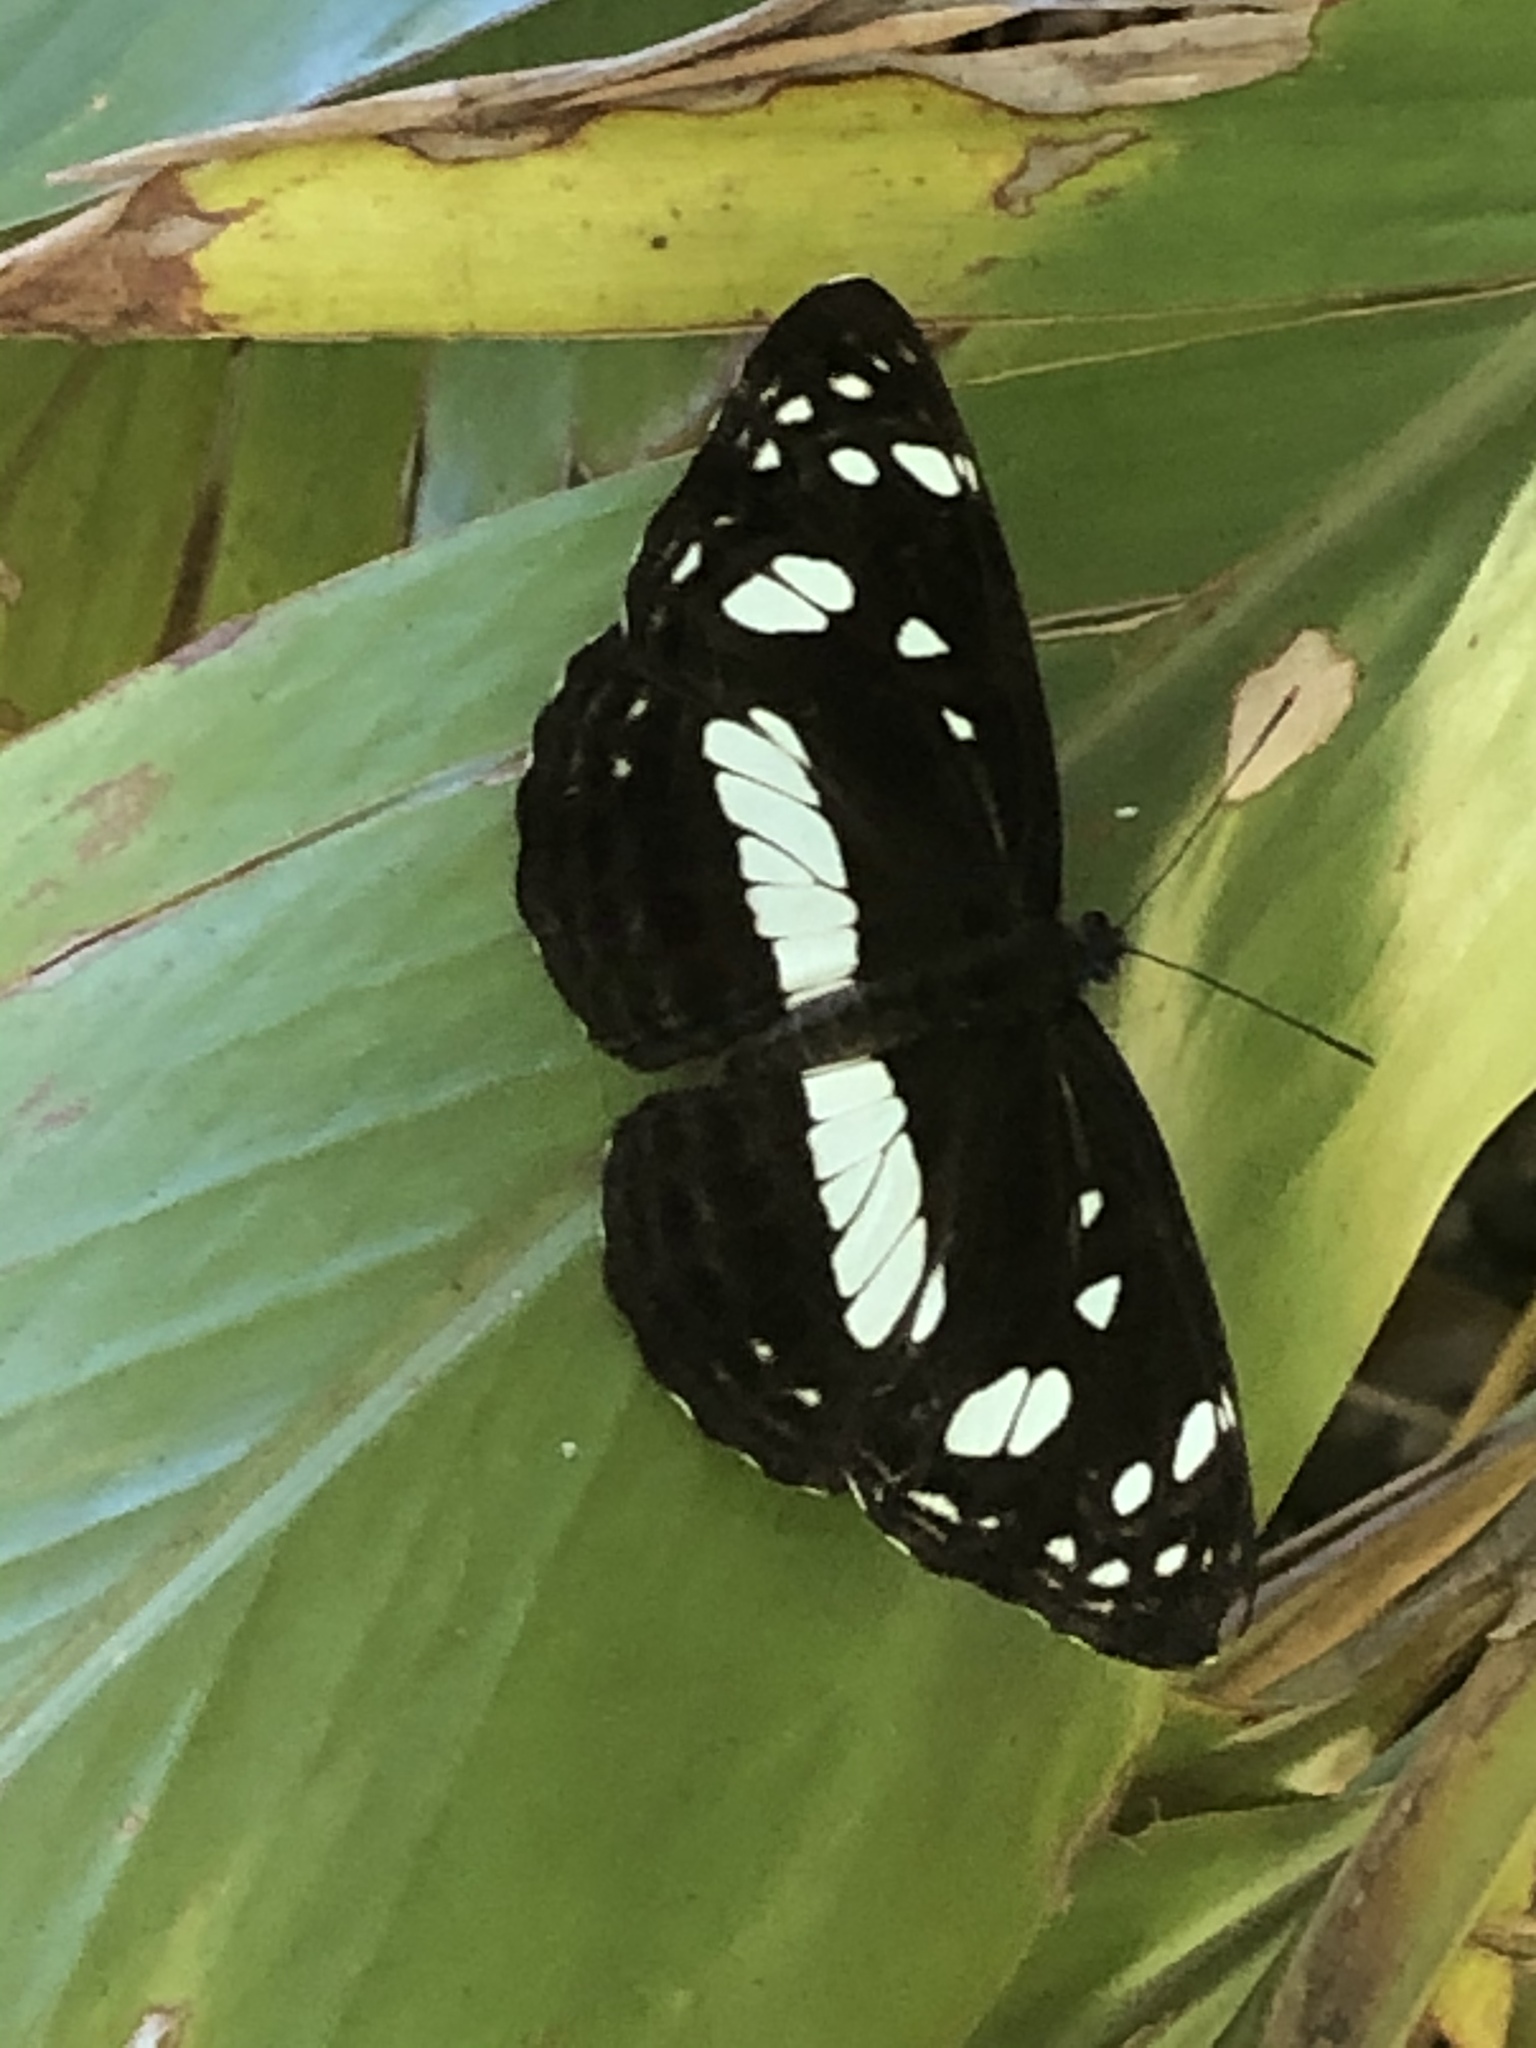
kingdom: Animalia
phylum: Arthropoda
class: Insecta
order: Lepidoptera
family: Nymphalidae
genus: Phaedyma
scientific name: Phaedyma shepherdi
